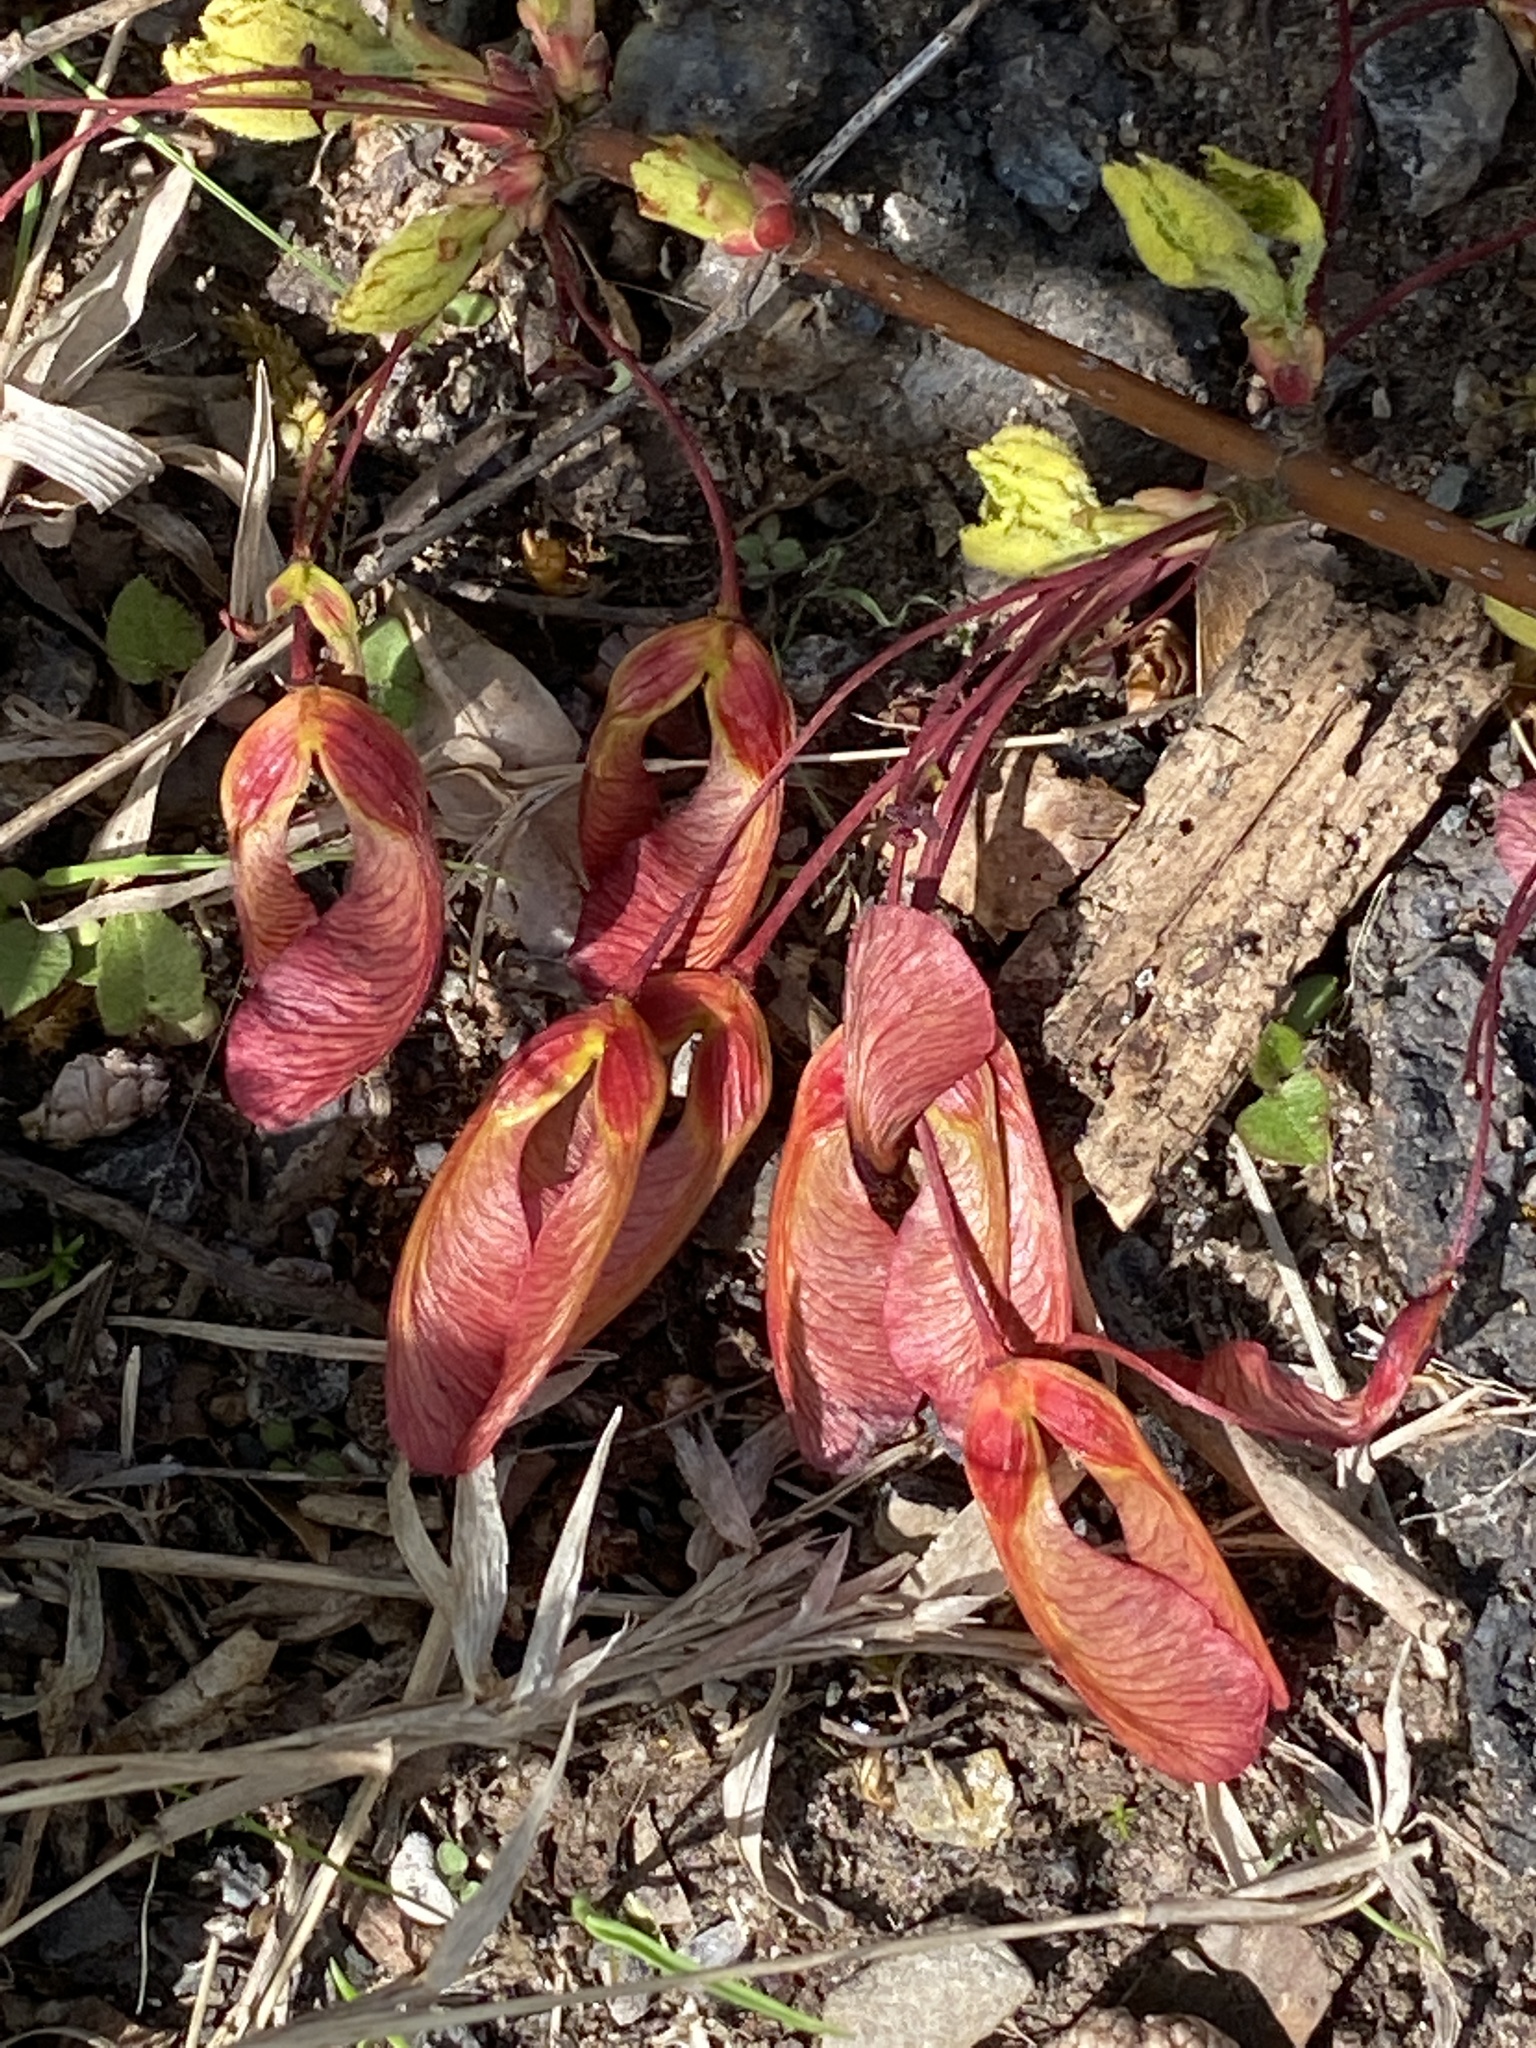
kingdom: Plantae
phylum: Tracheophyta
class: Magnoliopsida
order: Sapindales
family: Sapindaceae
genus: Acer
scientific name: Acer rubrum
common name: Red maple
